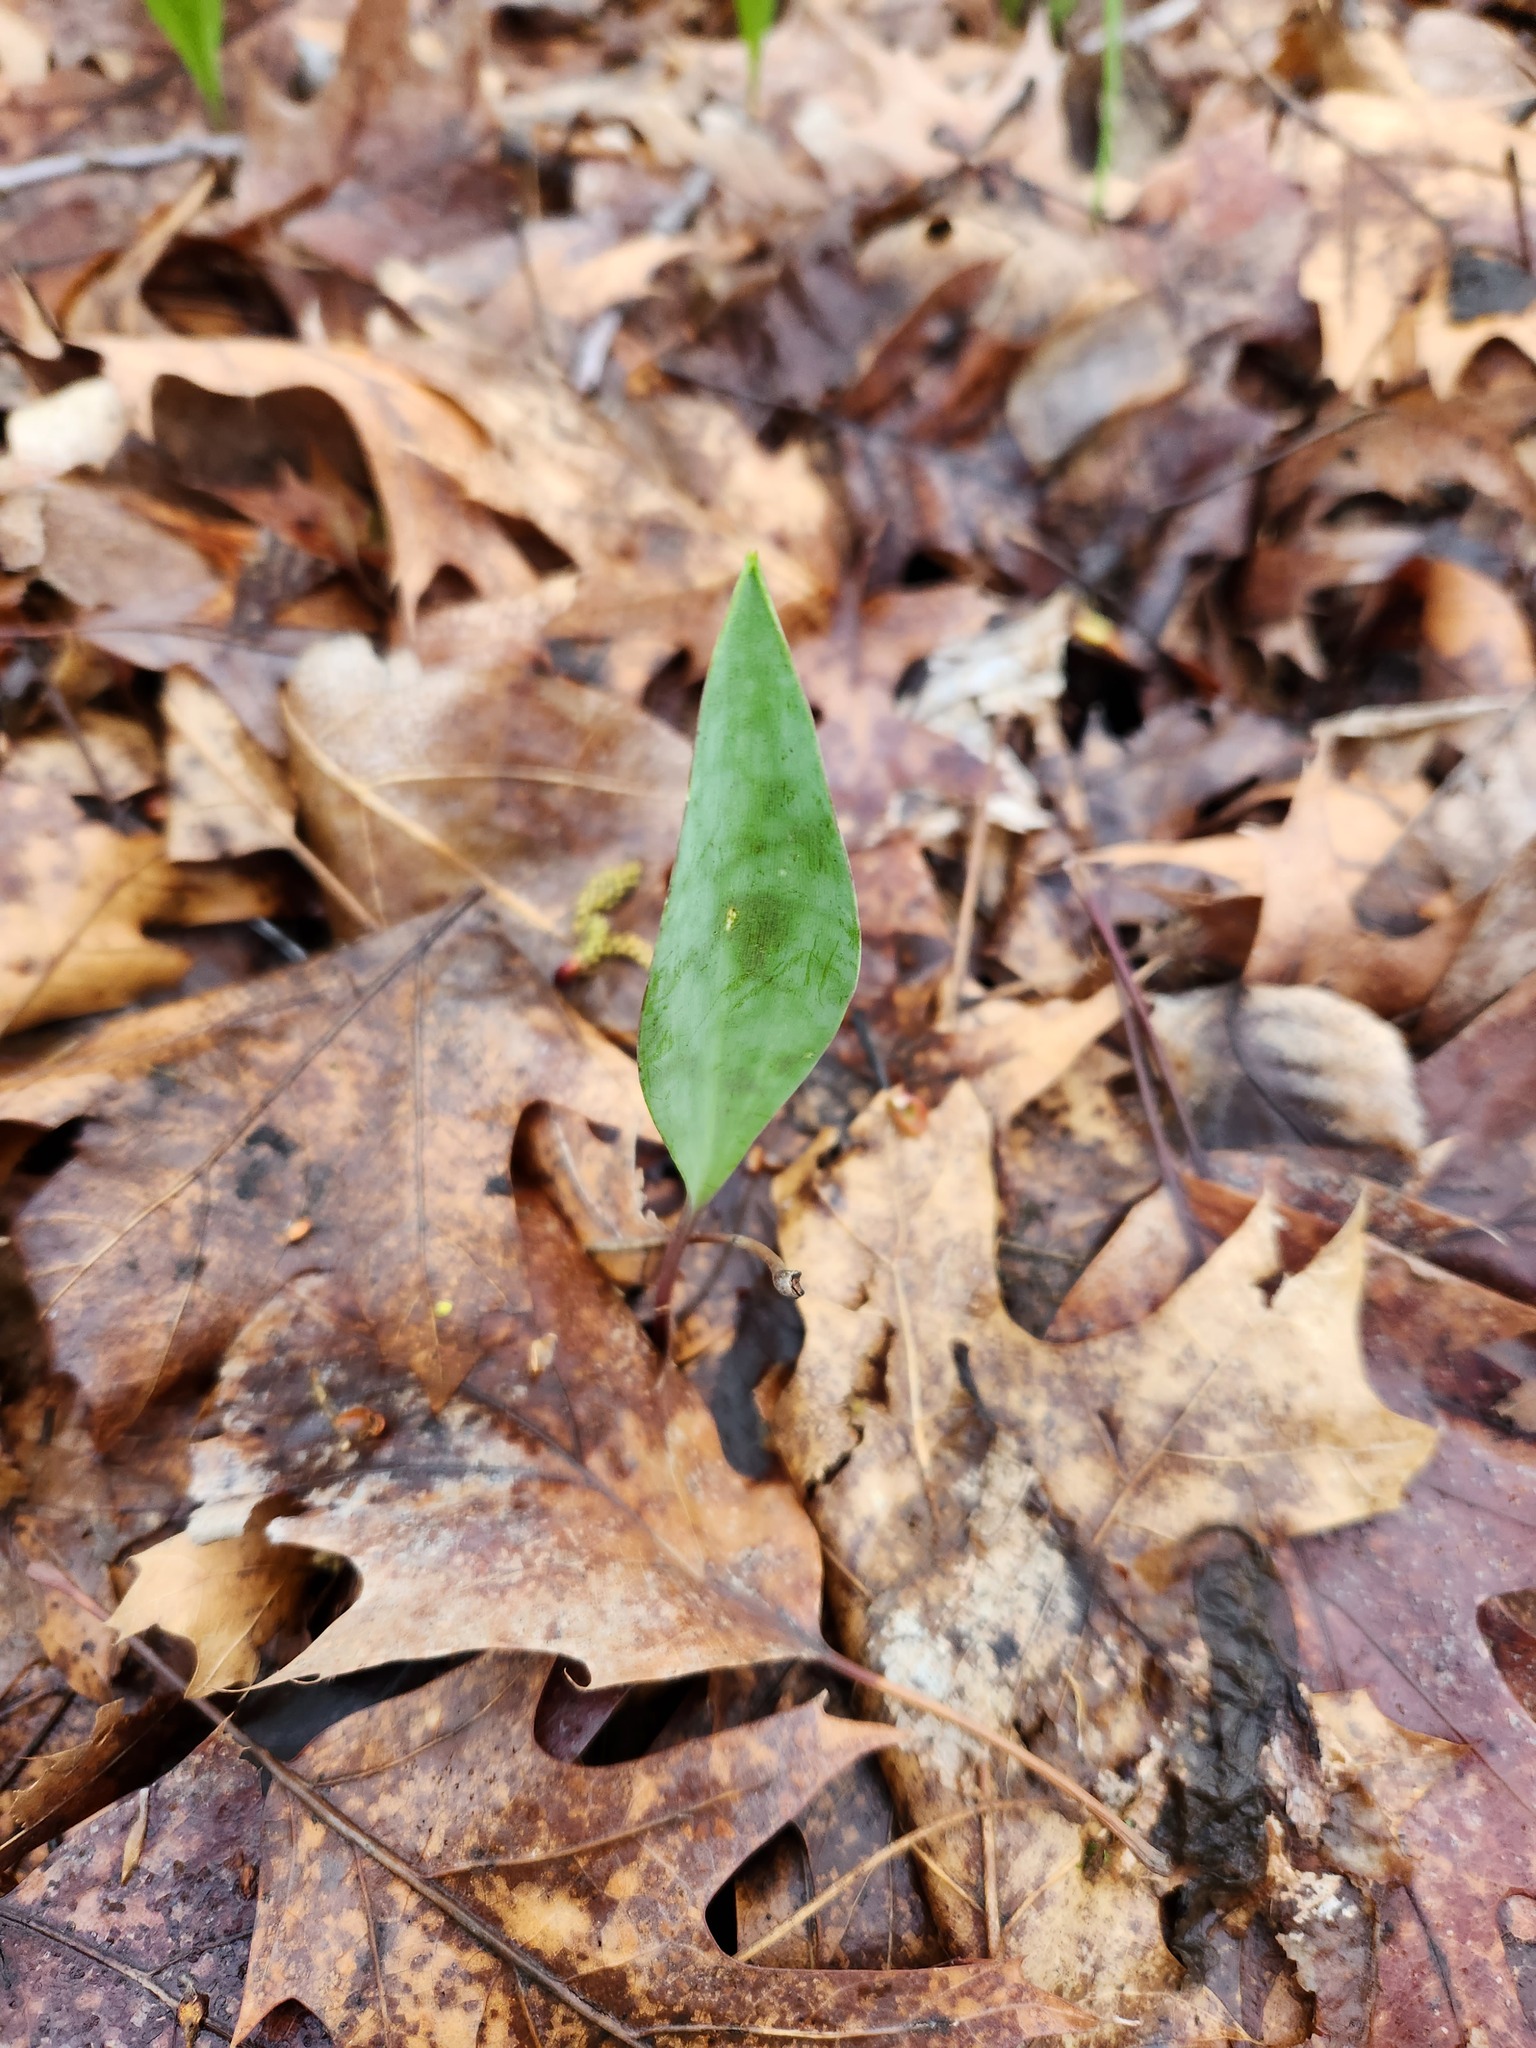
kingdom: Plantae
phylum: Tracheophyta
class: Liliopsida
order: Liliales
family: Liliaceae
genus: Erythronium
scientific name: Erythronium albidum
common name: White trout-lily
